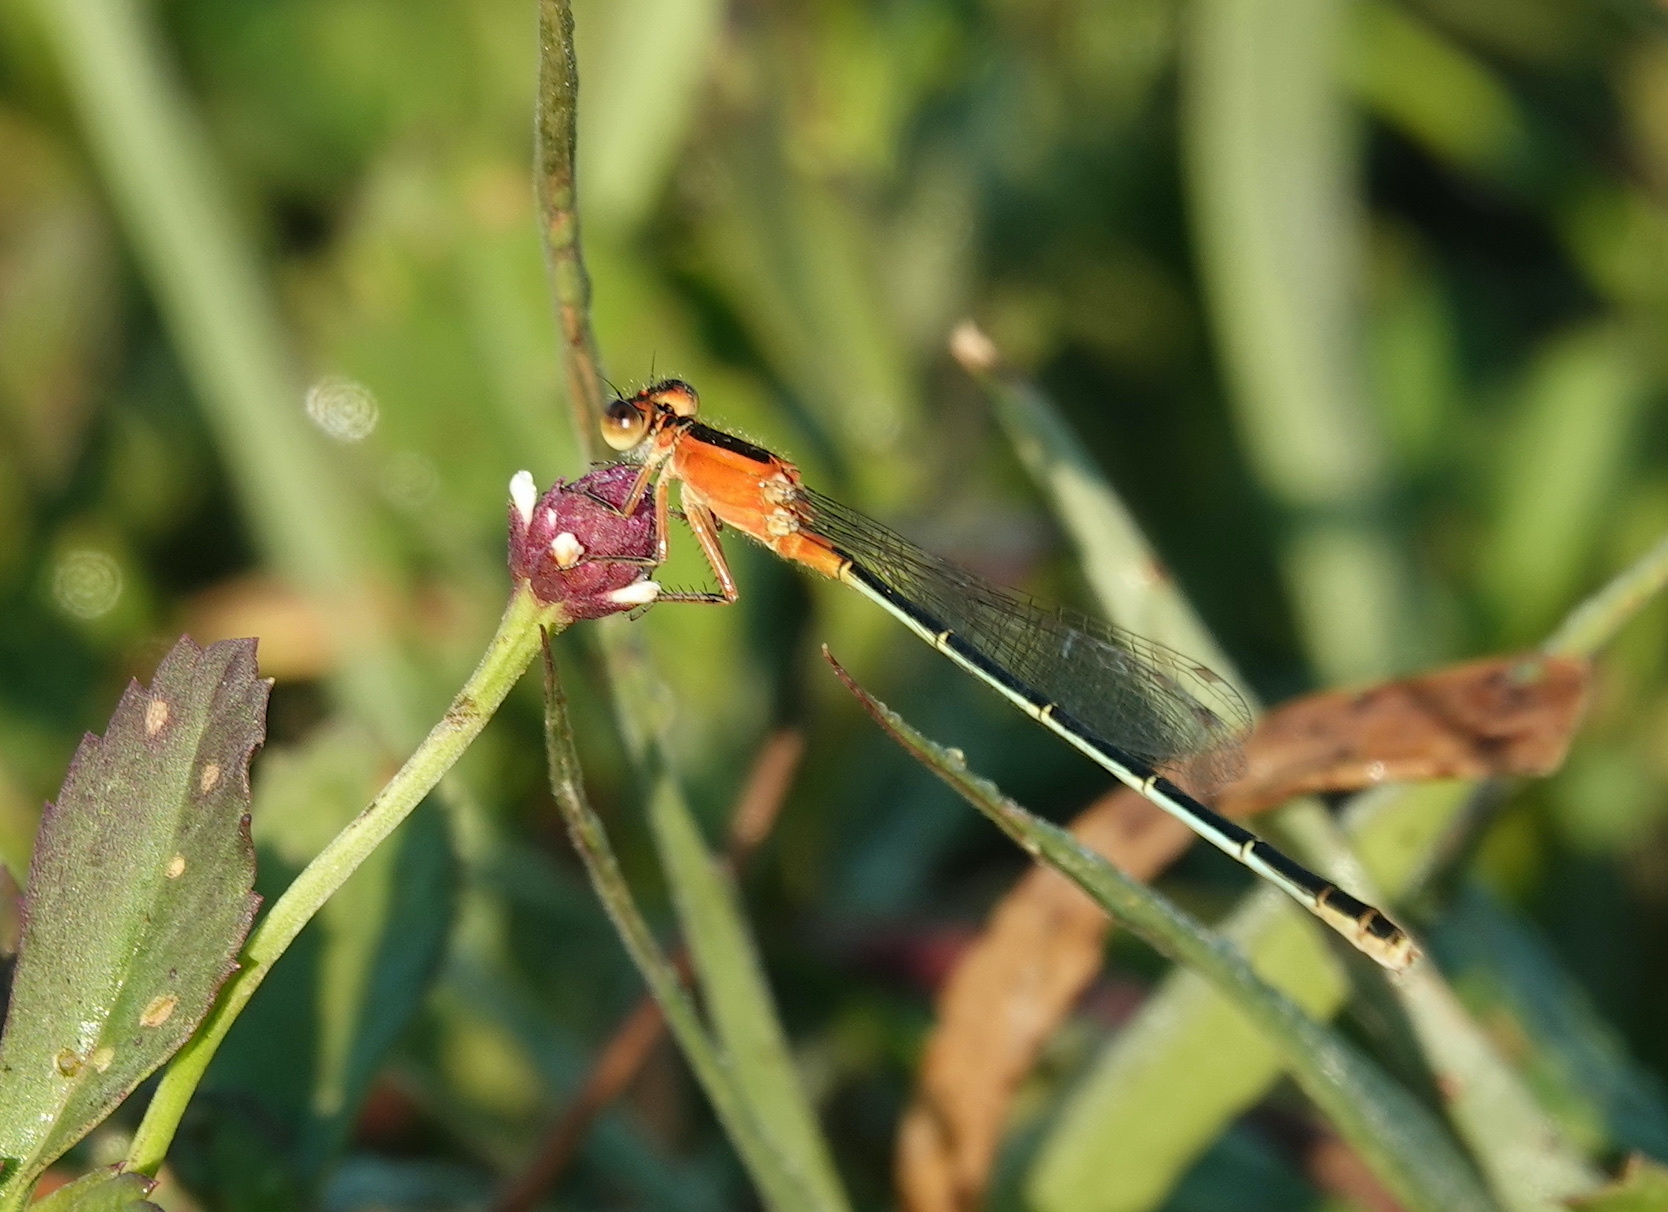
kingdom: Animalia
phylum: Arthropoda
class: Insecta
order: Odonata
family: Coenagrionidae
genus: Ischnura
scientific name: Ischnura ramburii
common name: Rambur's forktail
